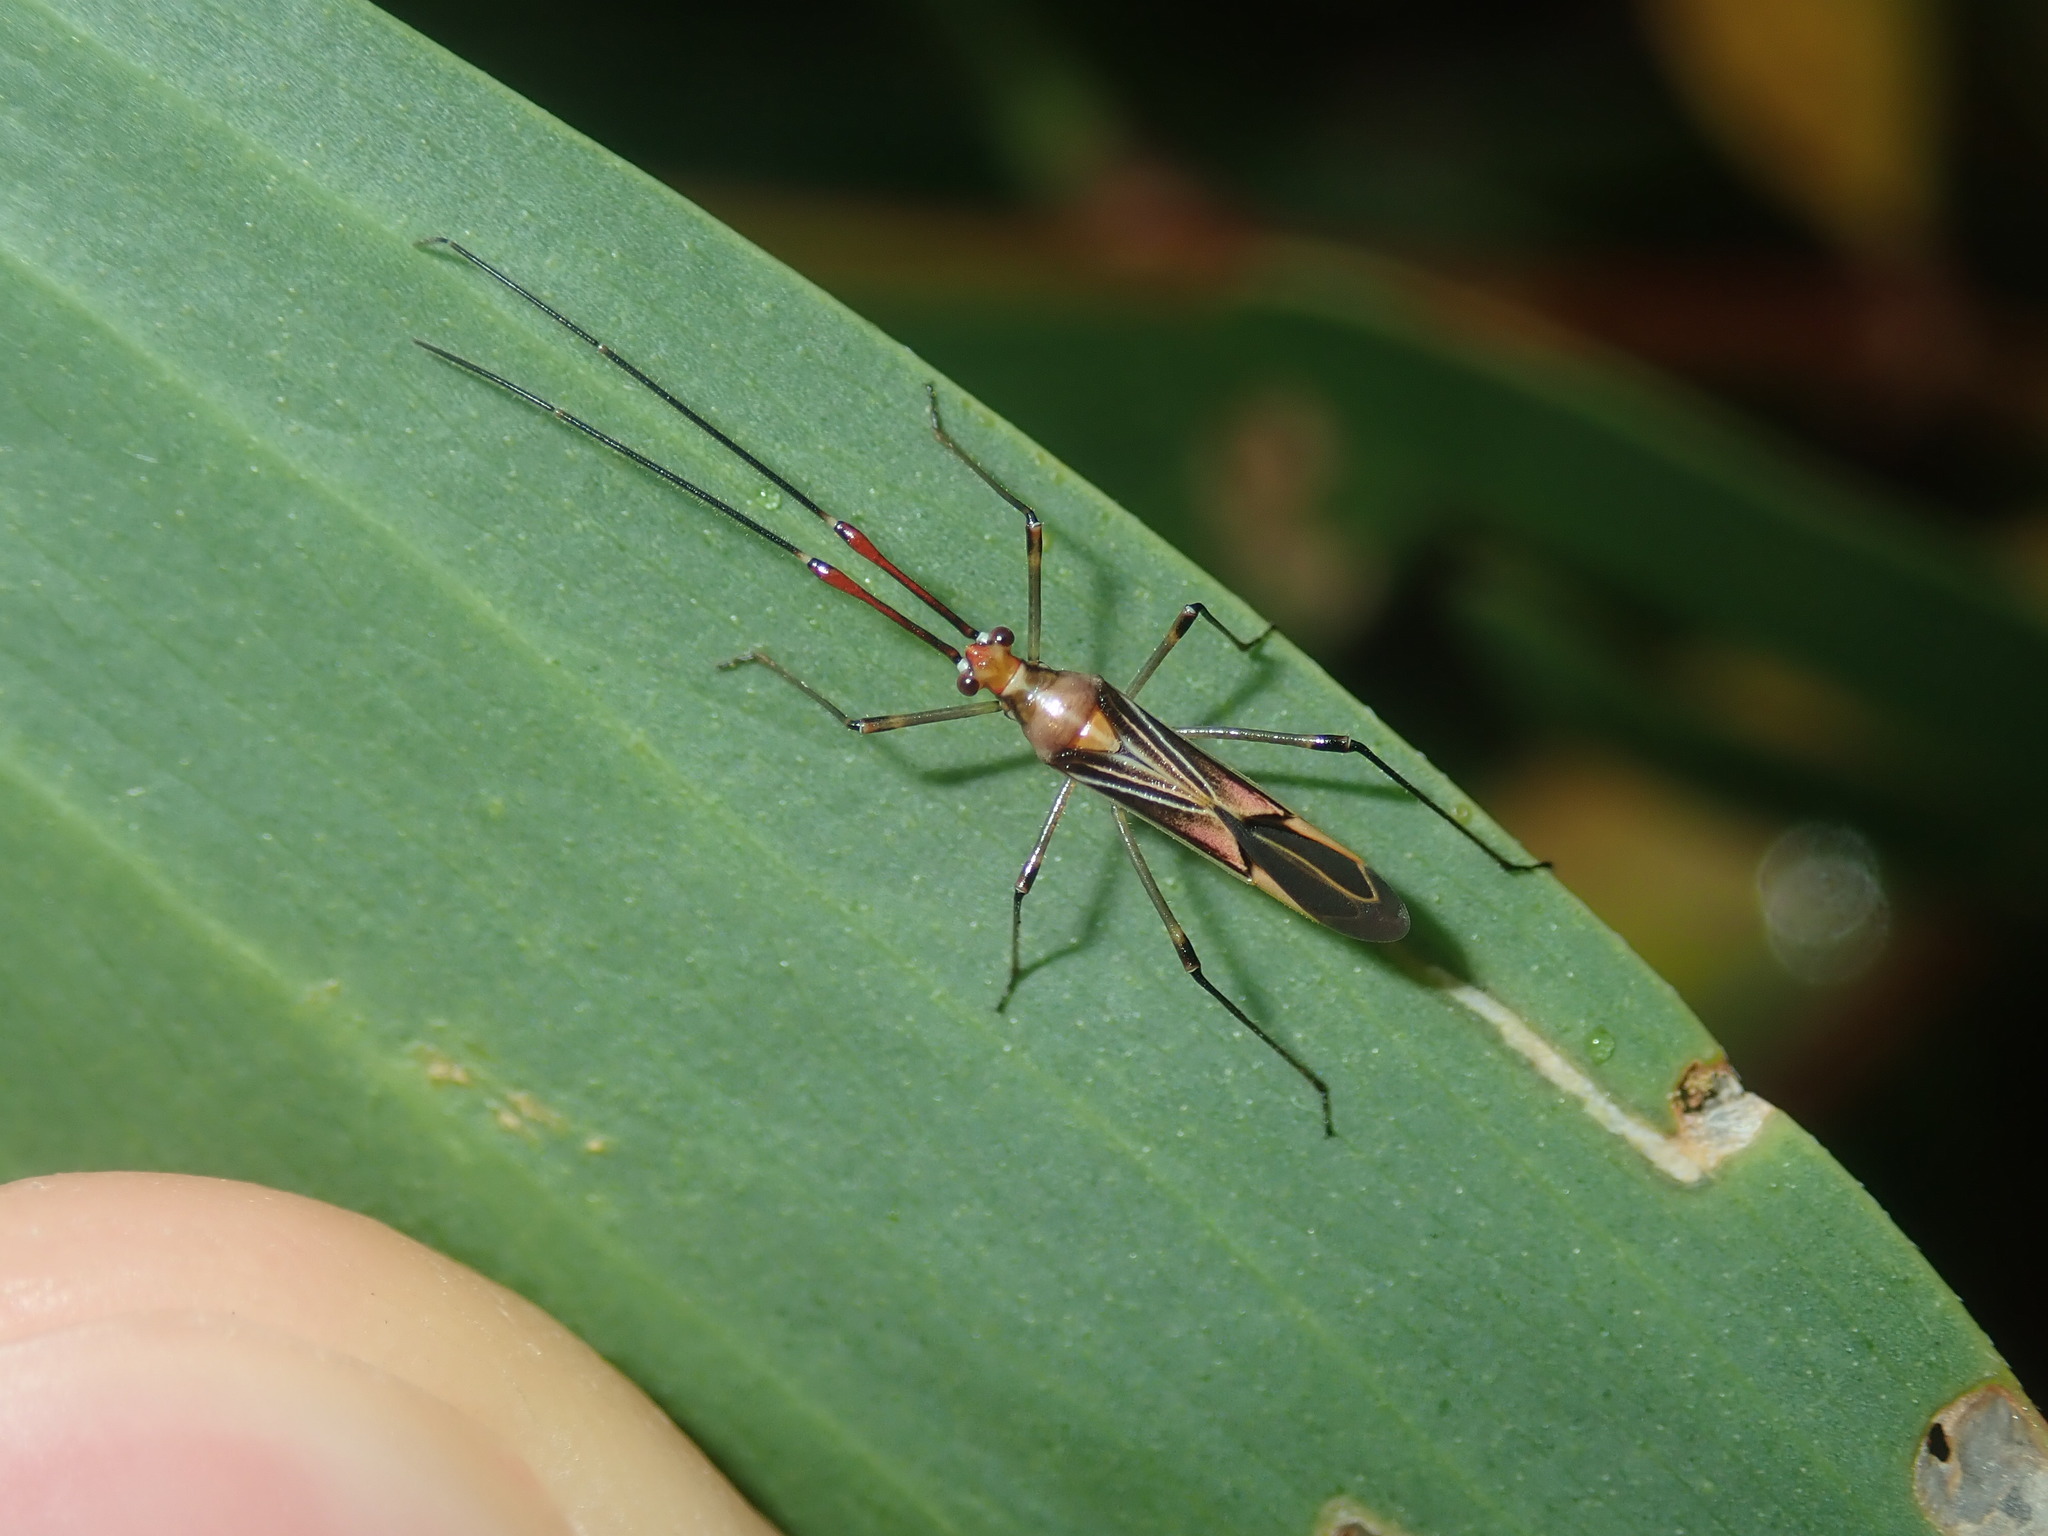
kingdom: Animalia
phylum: Arthropoda
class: Insecta
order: Hemiptera
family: Miridae
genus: Rayieria
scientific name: Rayieria
